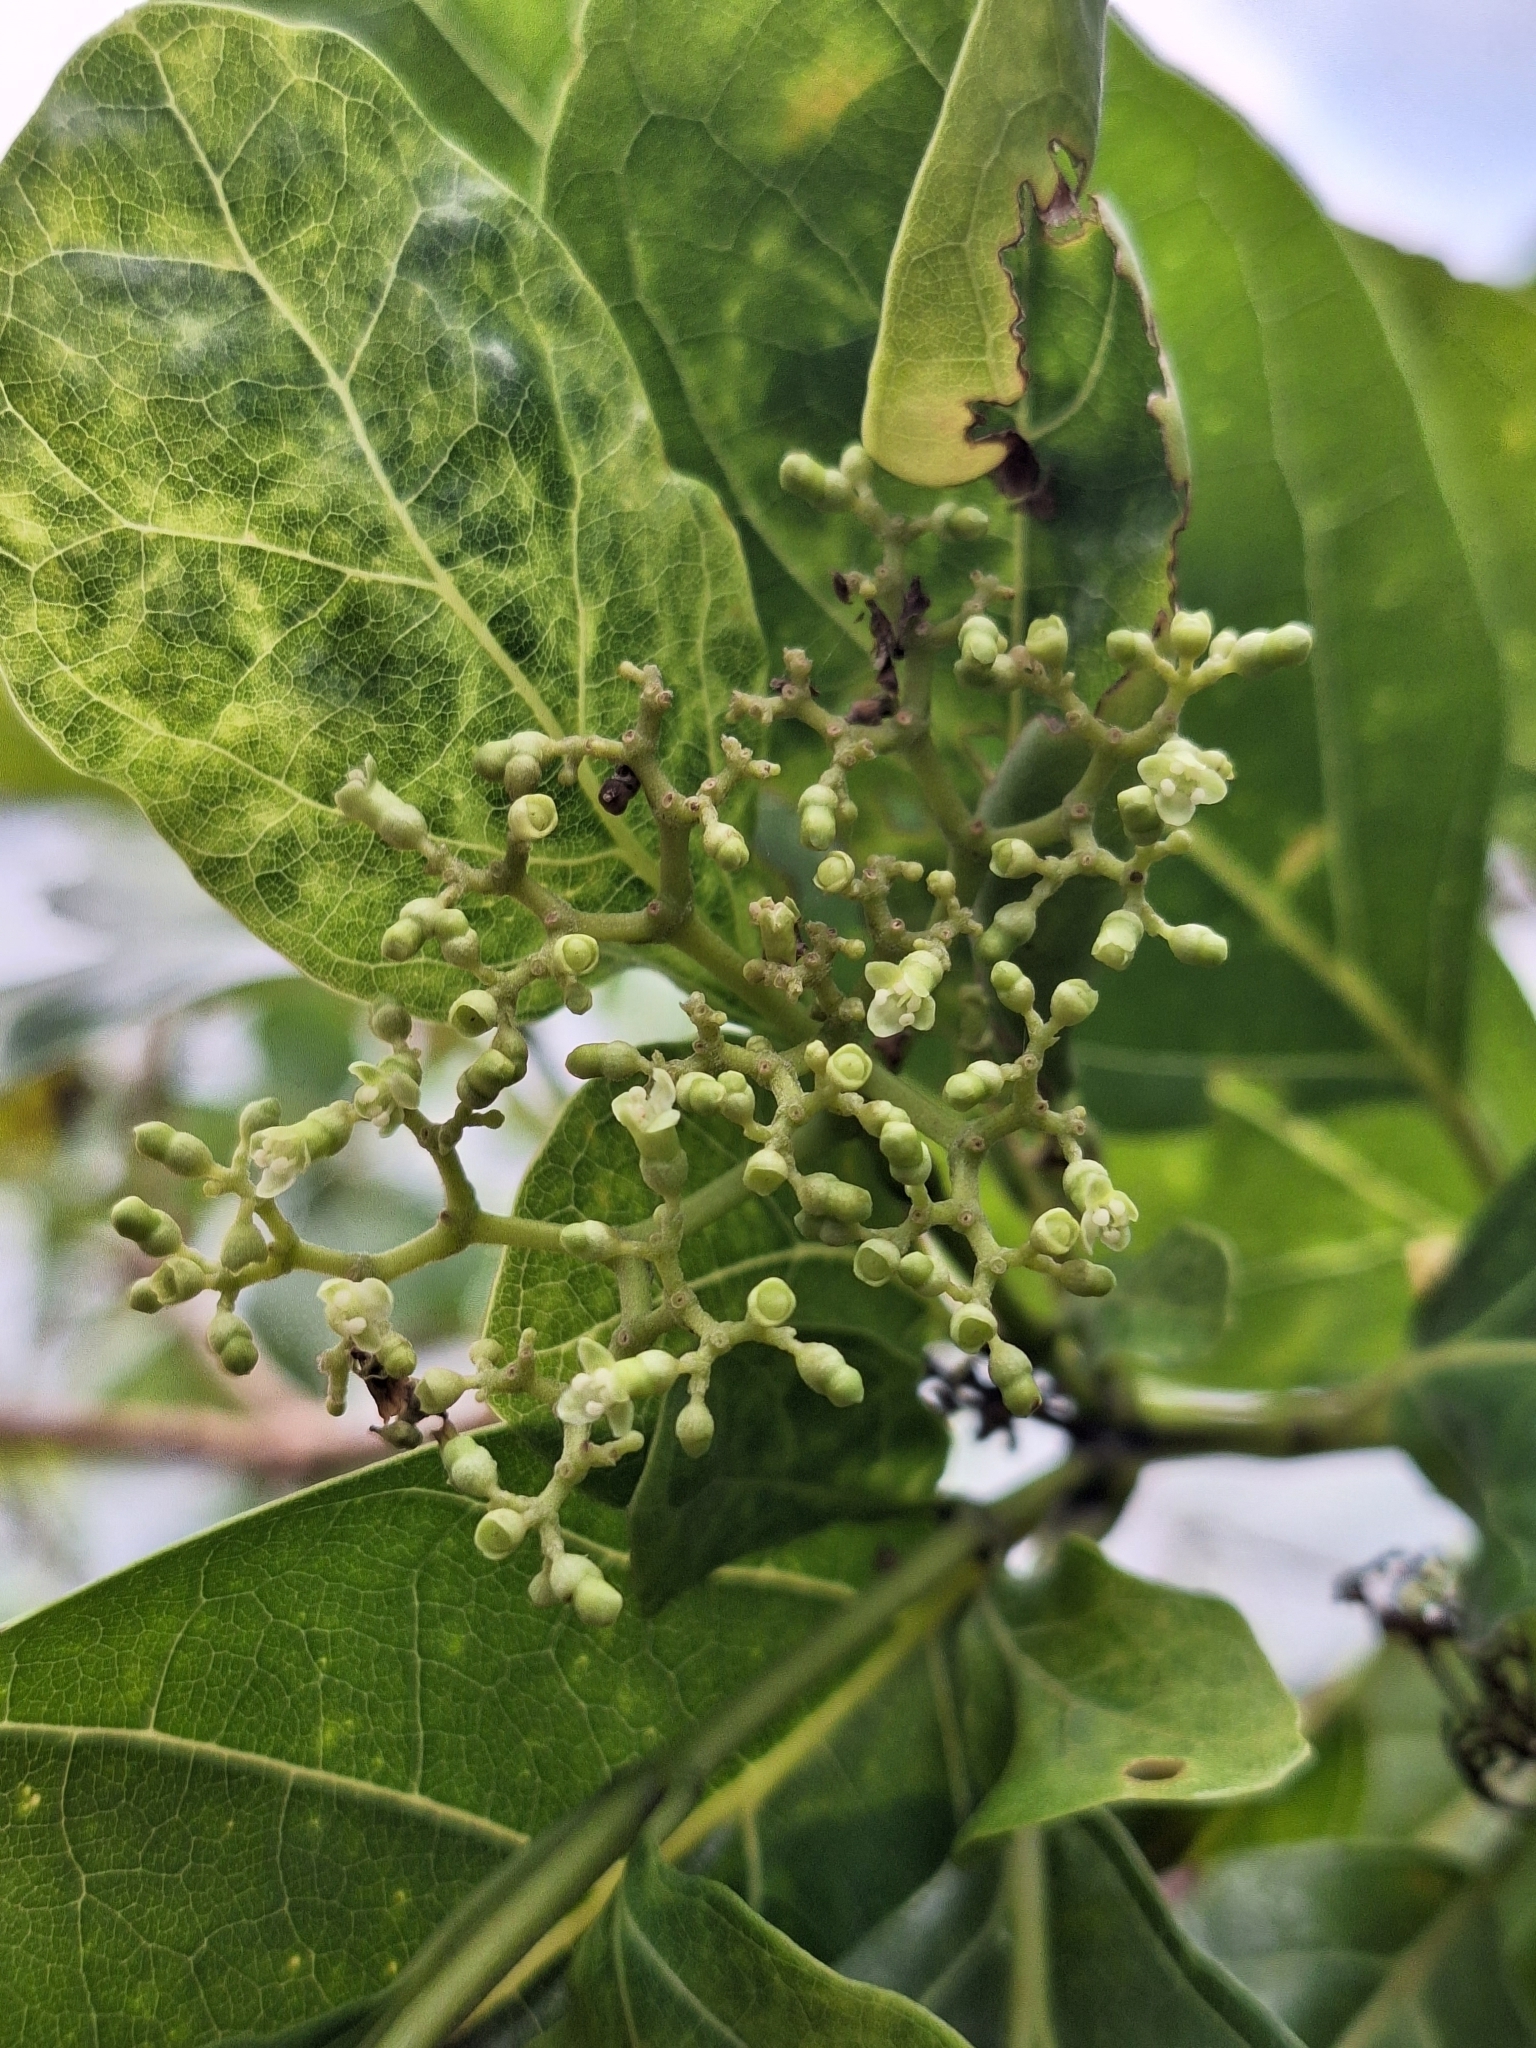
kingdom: Plantae
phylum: Tracheophyta
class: Magnoliopsida
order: Lamiales
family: Lamiaceae
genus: Premna
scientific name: Premna serratifolia
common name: Bastard guelder
